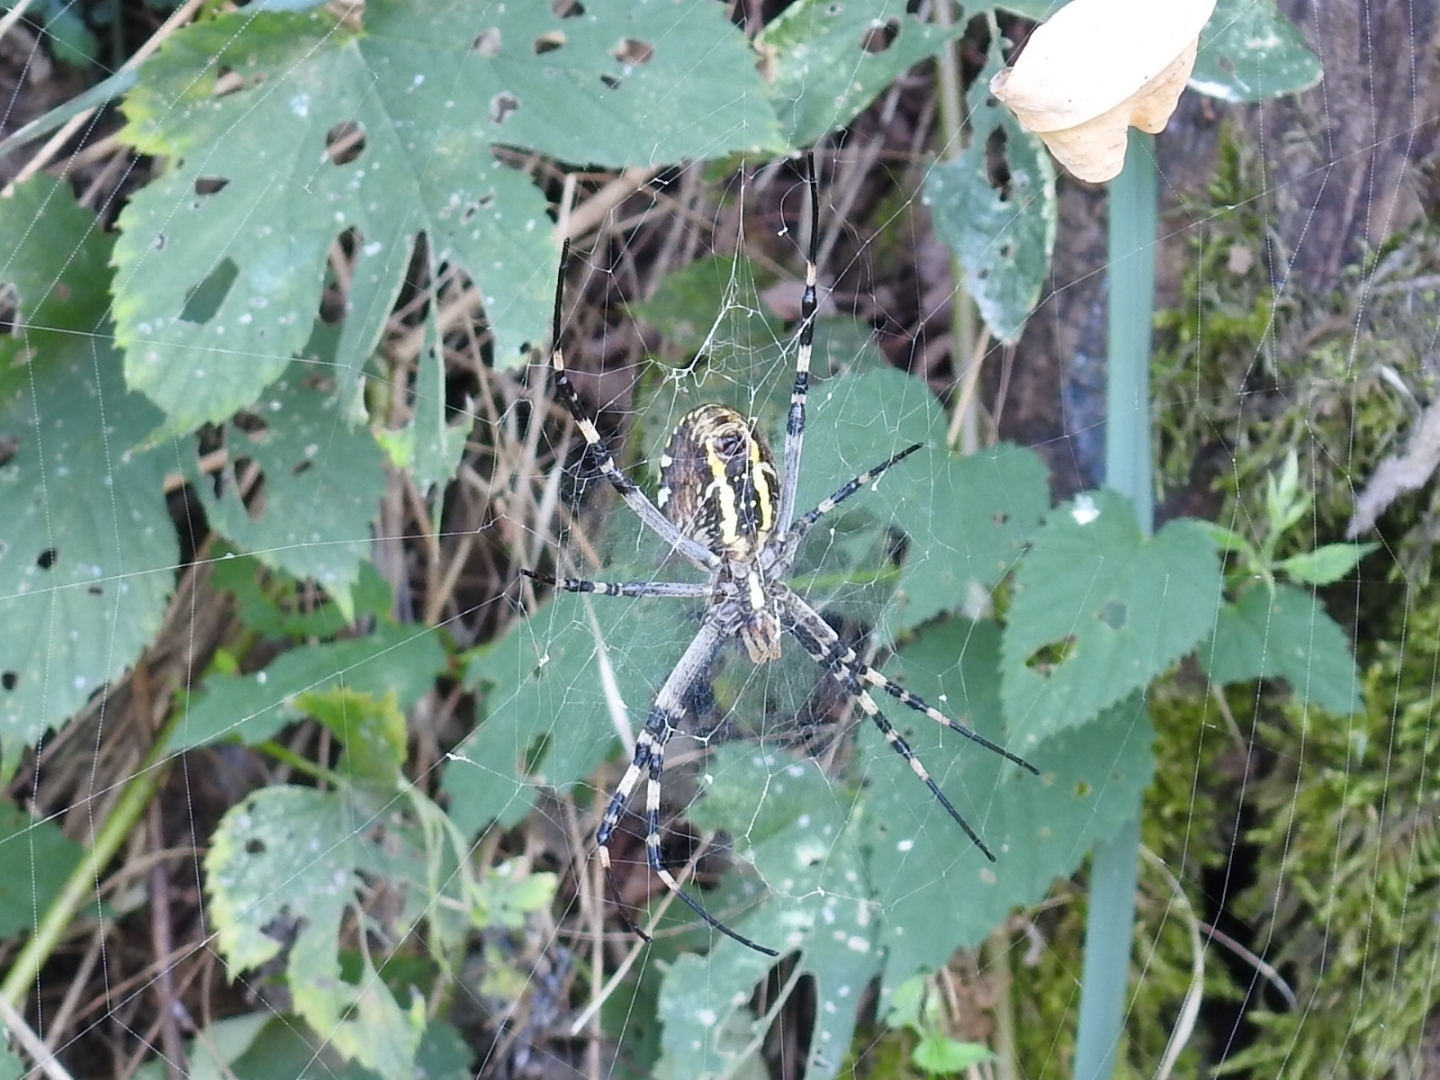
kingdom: Animalia
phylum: Arthropoda
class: Arachnida
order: Araneae
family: Araneidae
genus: Argiope
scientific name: Argiope bruennichi
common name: Wasp spider
